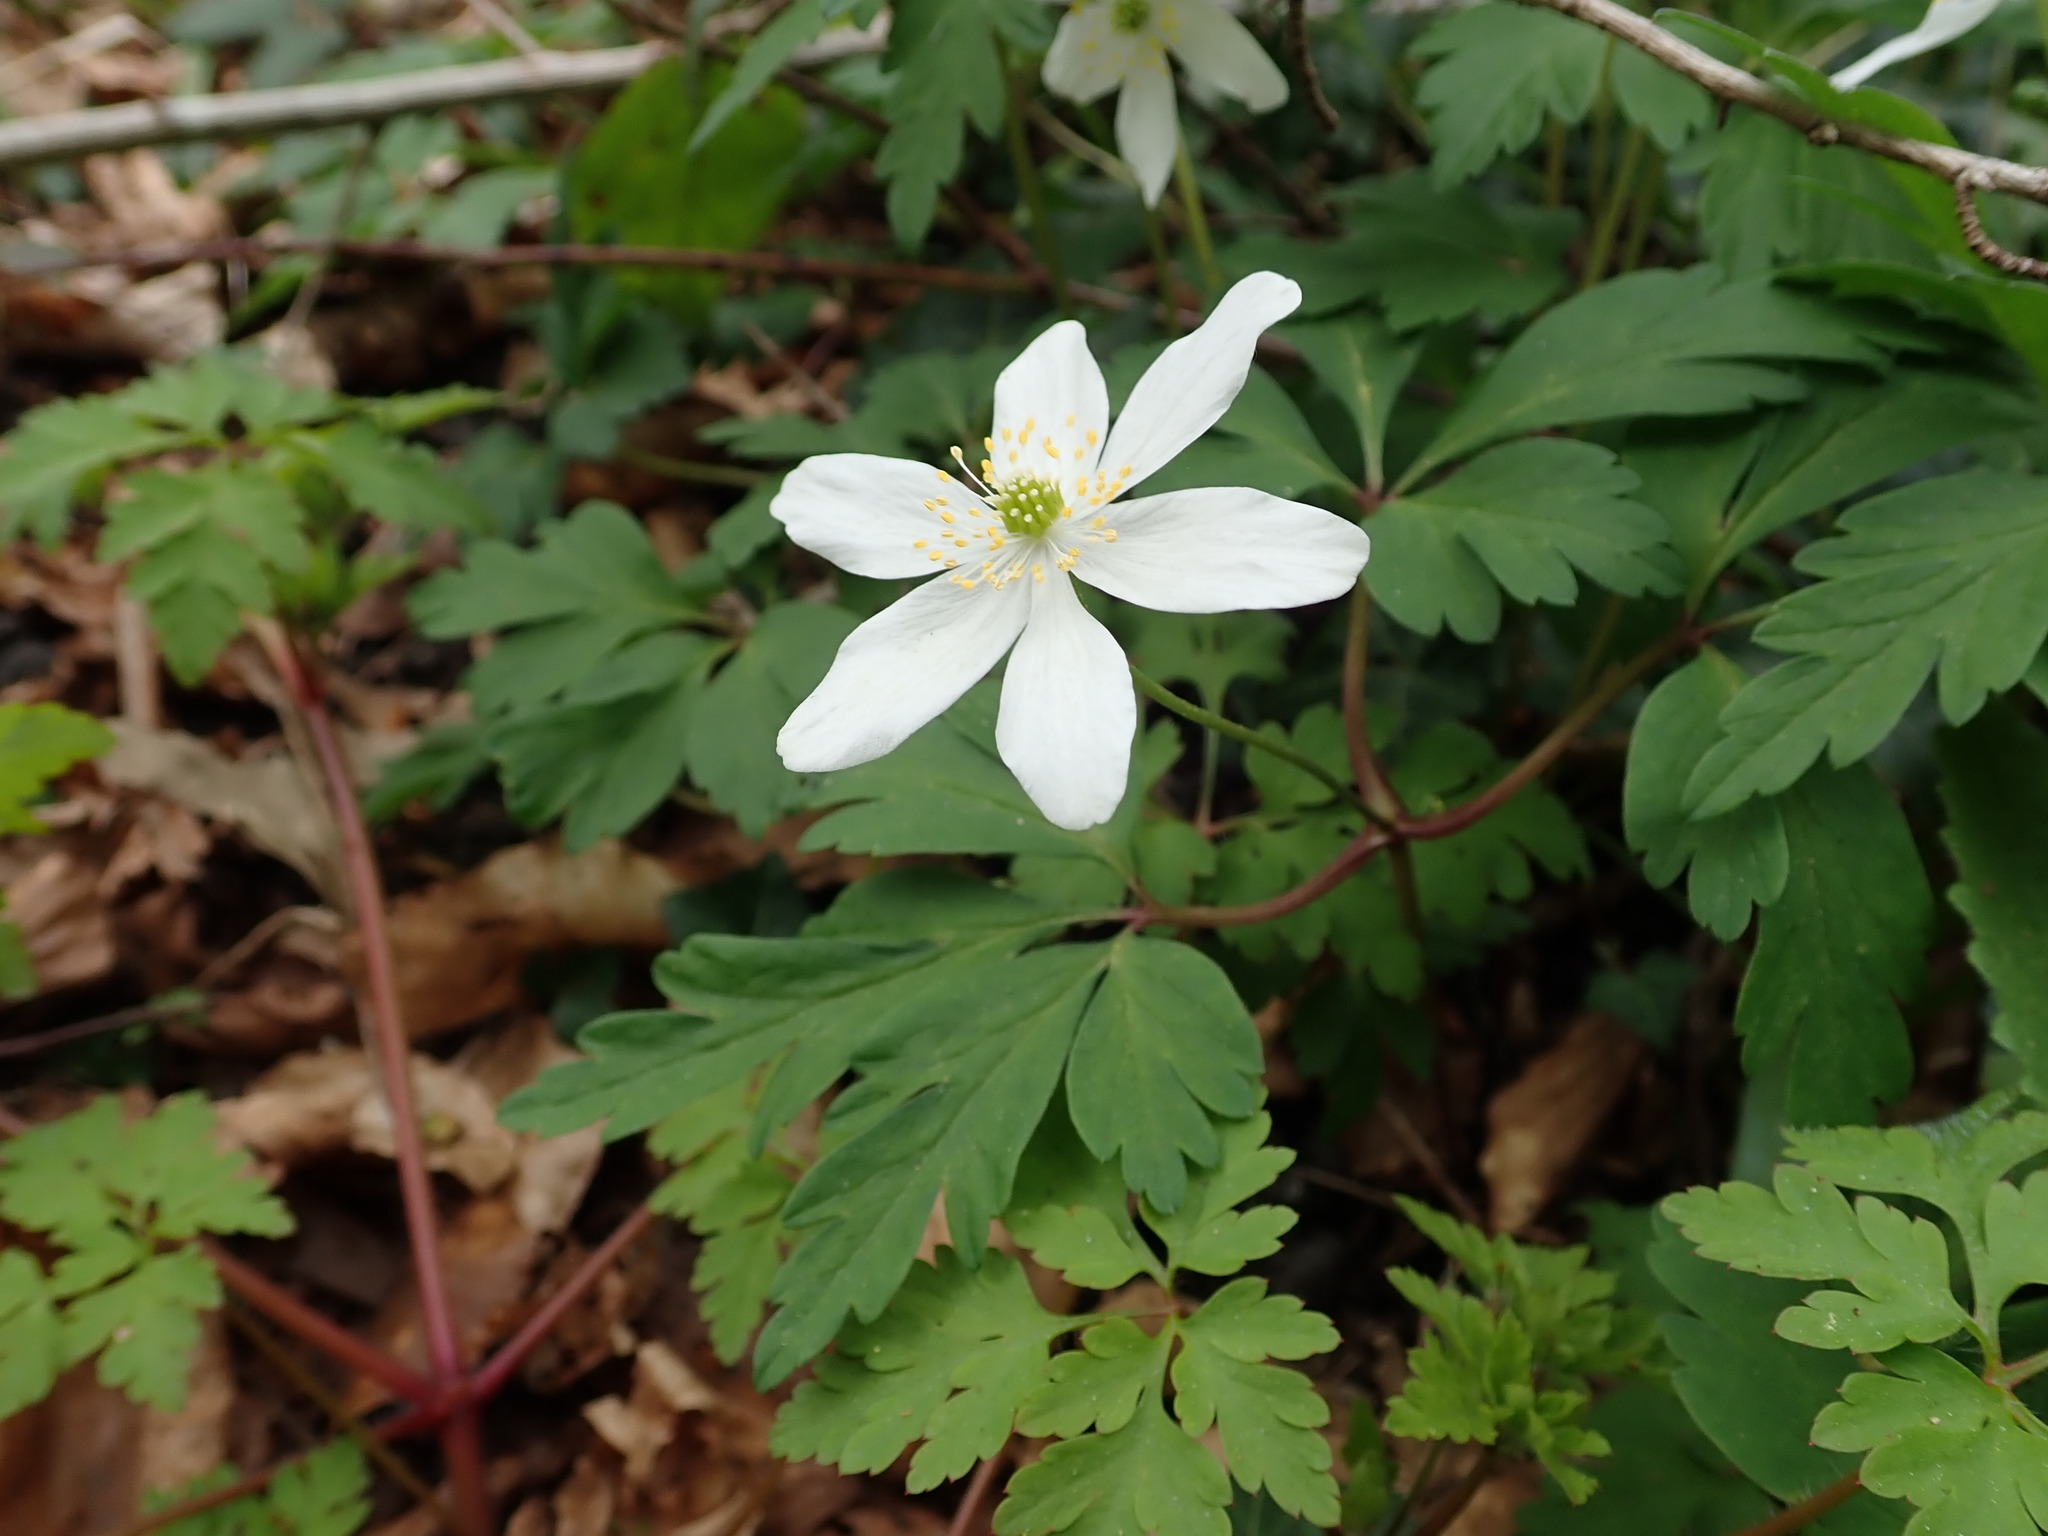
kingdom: Plantae
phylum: Tracheophyta
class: Magnoliopsida
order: Ranunculales
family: Ranunculaceae
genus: Anemone
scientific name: Anemone nemorosa
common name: Wood anemone
